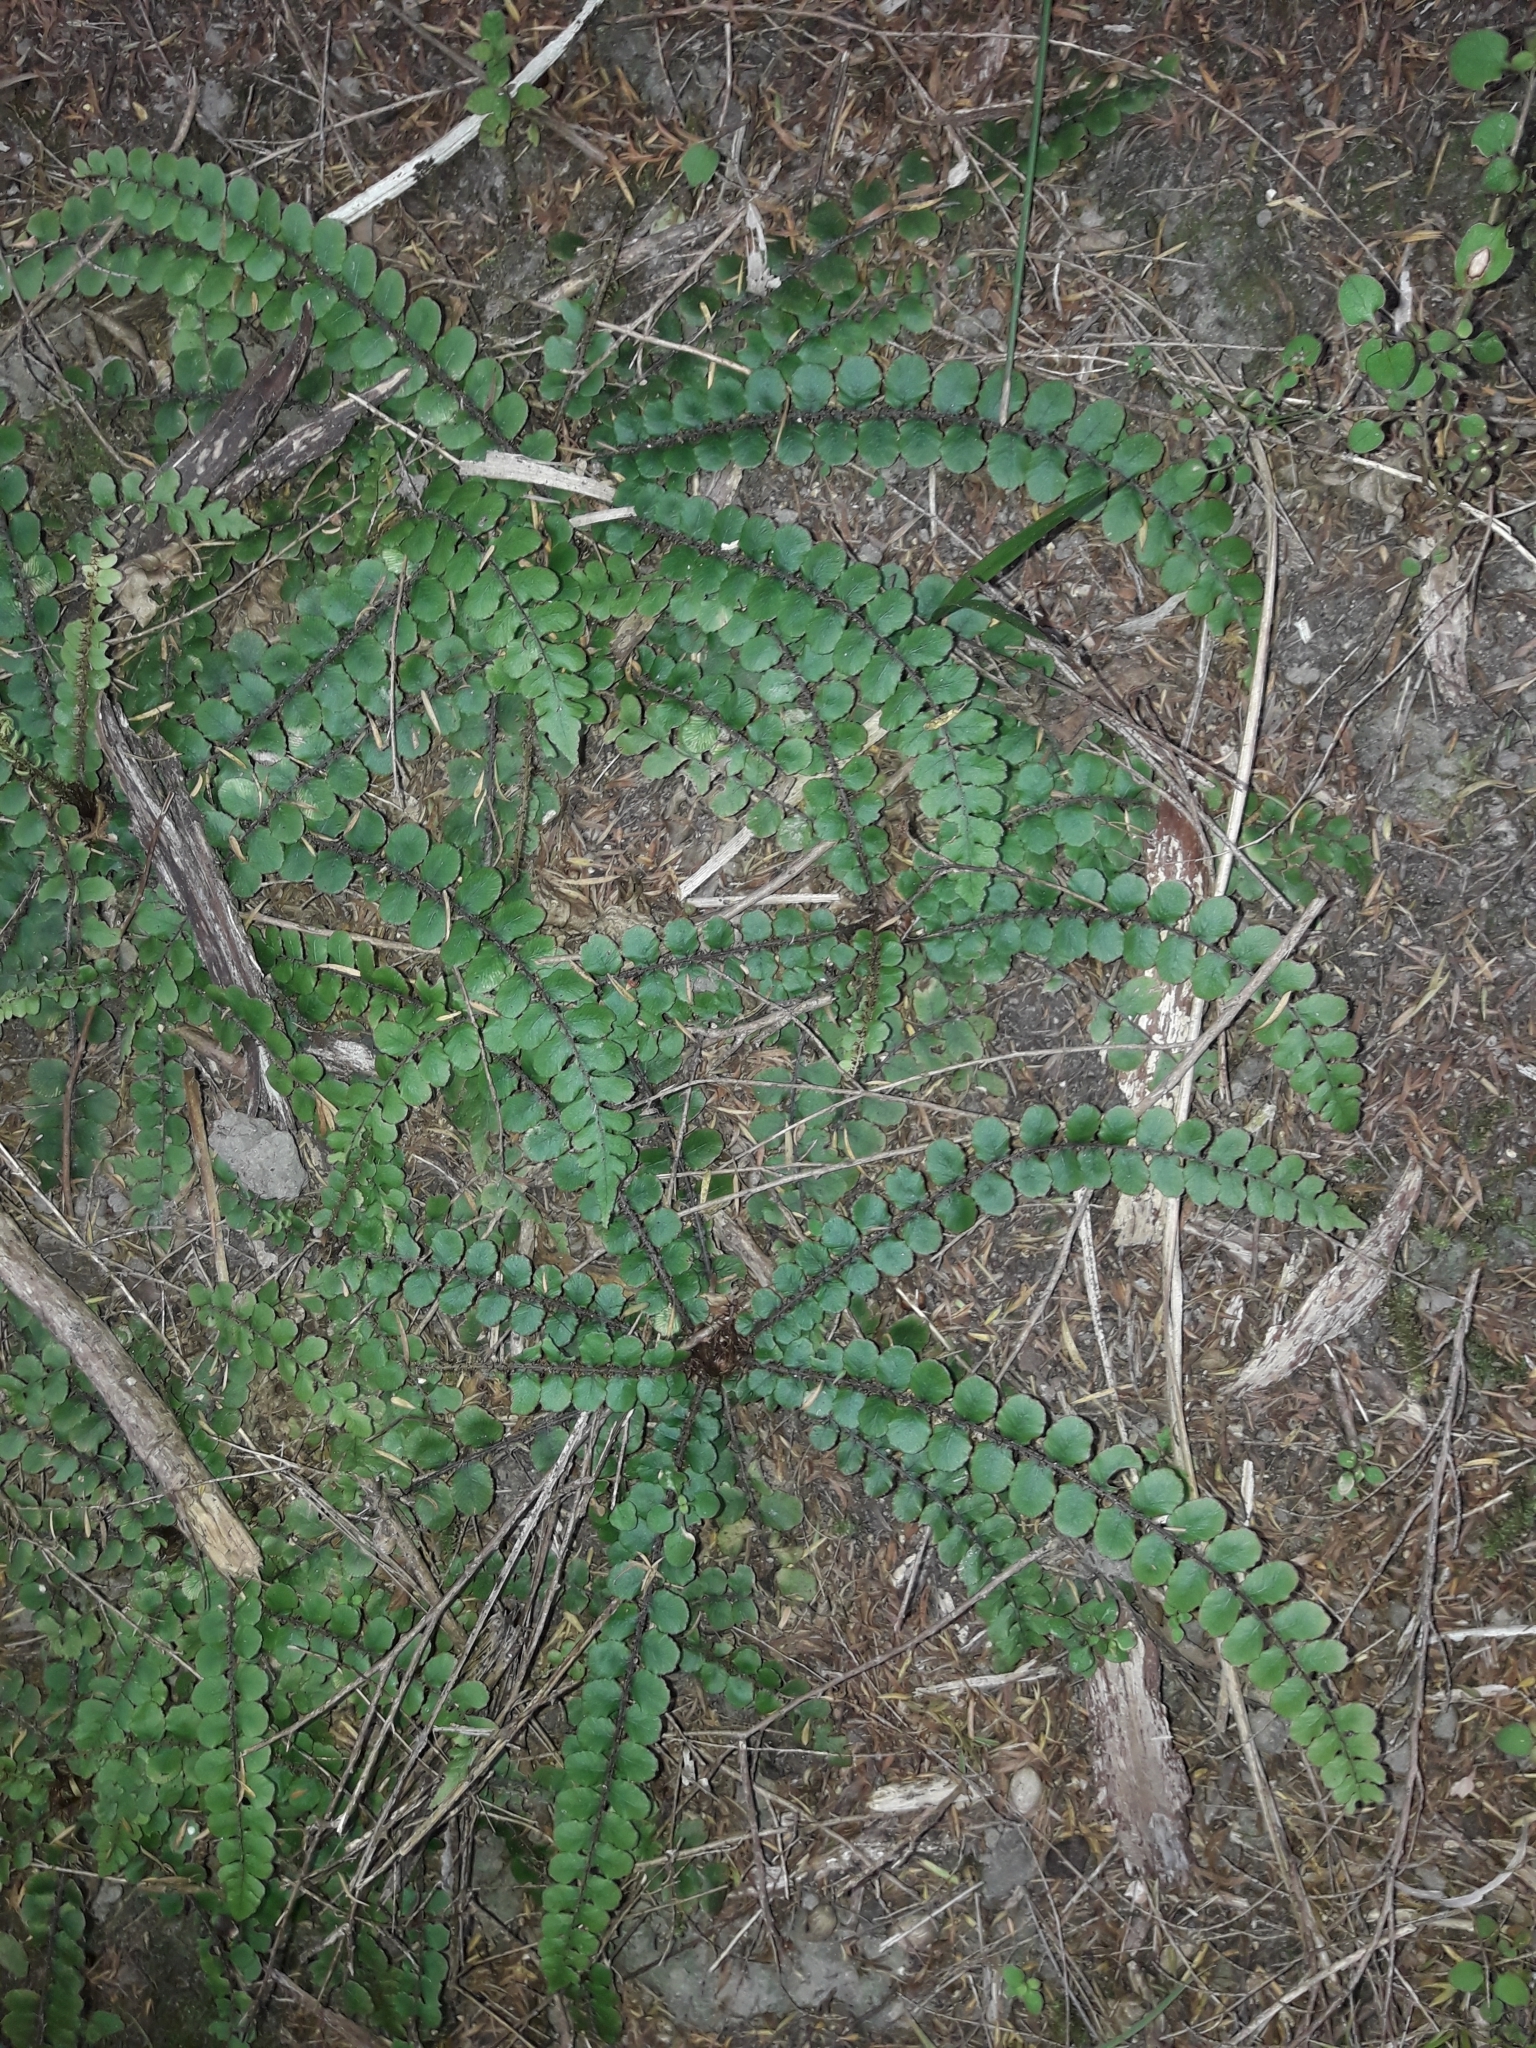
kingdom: Plantae
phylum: Tracheophyta
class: Polypodiopsida
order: Polypodiales
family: Blechnaceae
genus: Cranfillia
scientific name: Cranfillia fluviatilis
